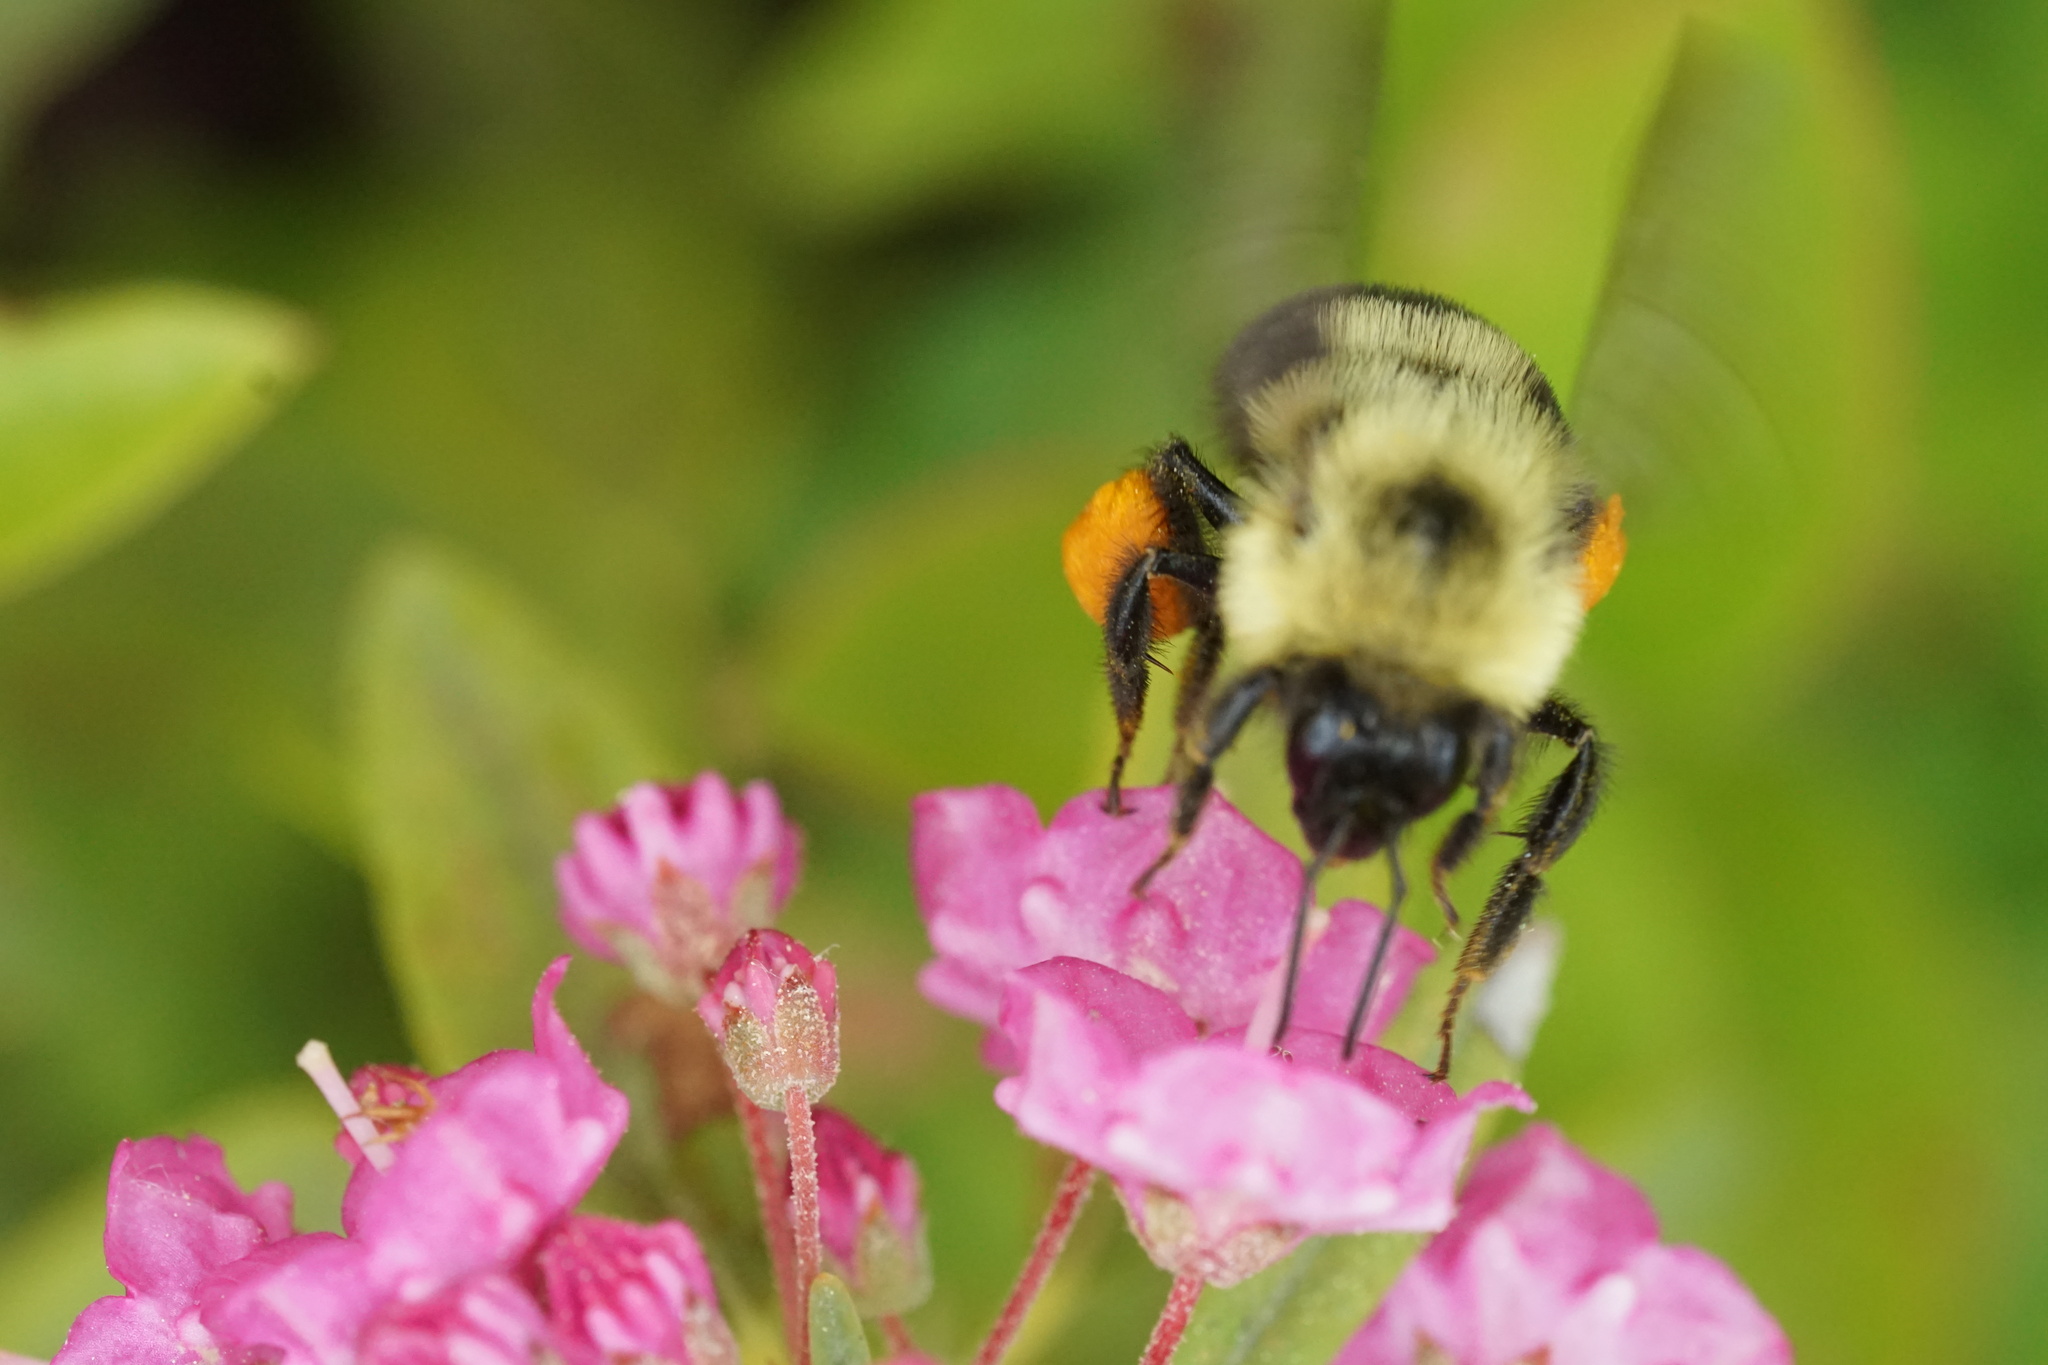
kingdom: Animalia
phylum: Arthropoda
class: Insecta
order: Hymenoptera
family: Apidae
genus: Bombus
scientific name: Bombus bimaculatus
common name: Two-spotted bumble bee
